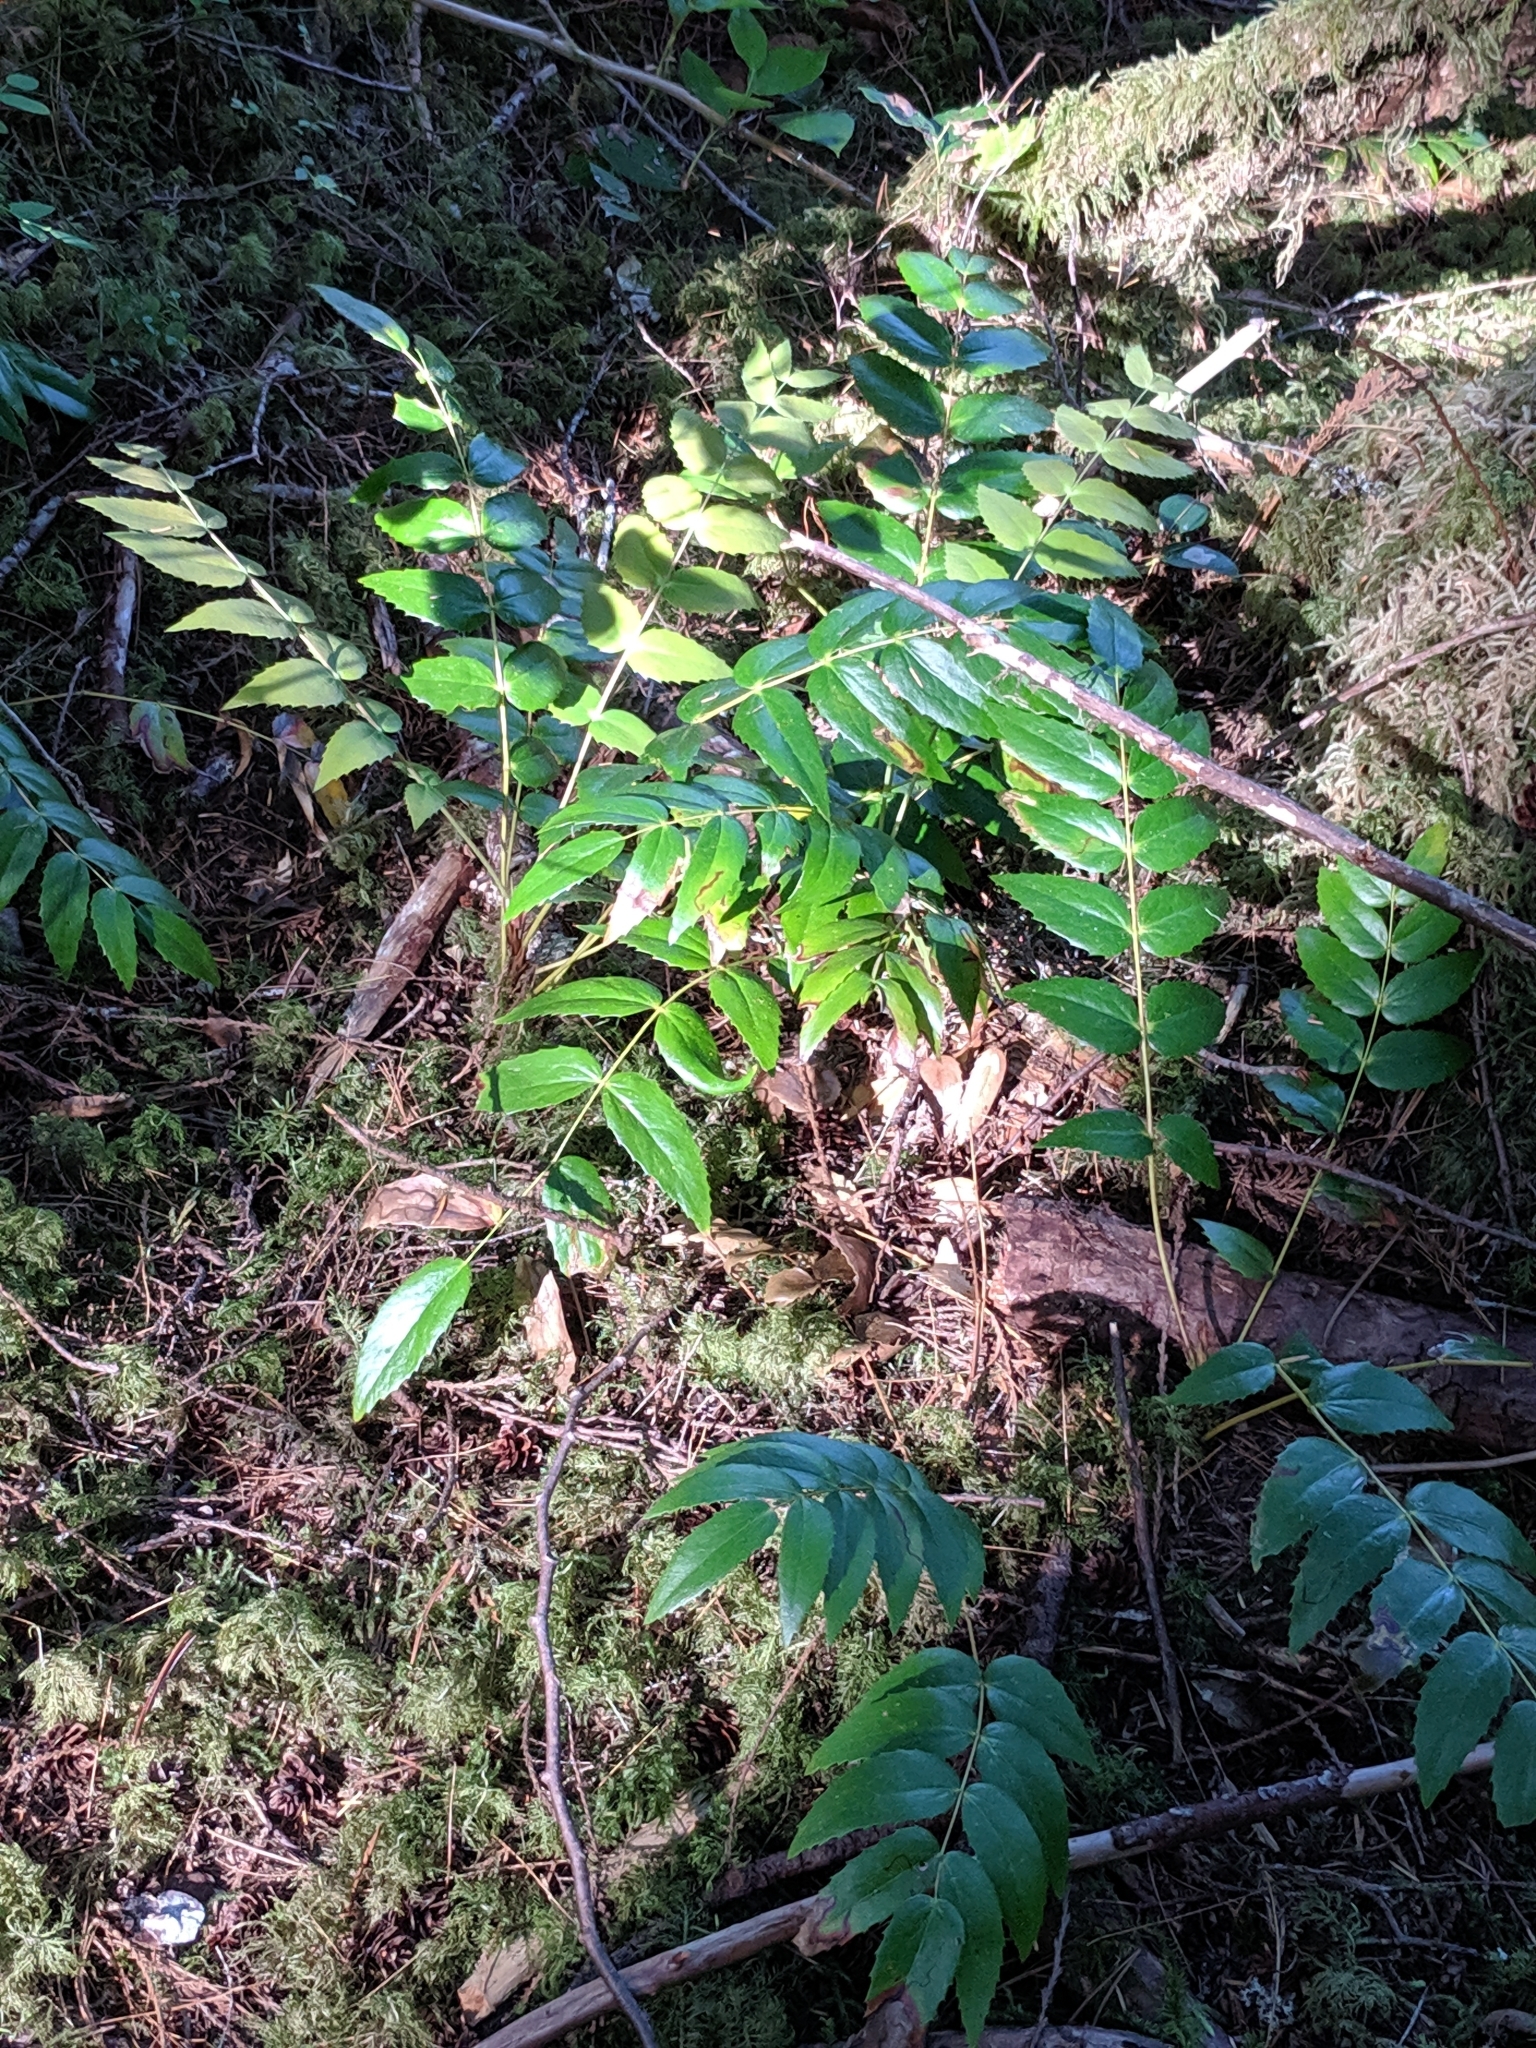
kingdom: Plantae
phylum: Tracheophyta
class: Magnoliopsida
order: Ranunculales
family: Berberidaceae
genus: Mahonia
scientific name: Mahonia nervosa
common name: Cascade oregon-grape
